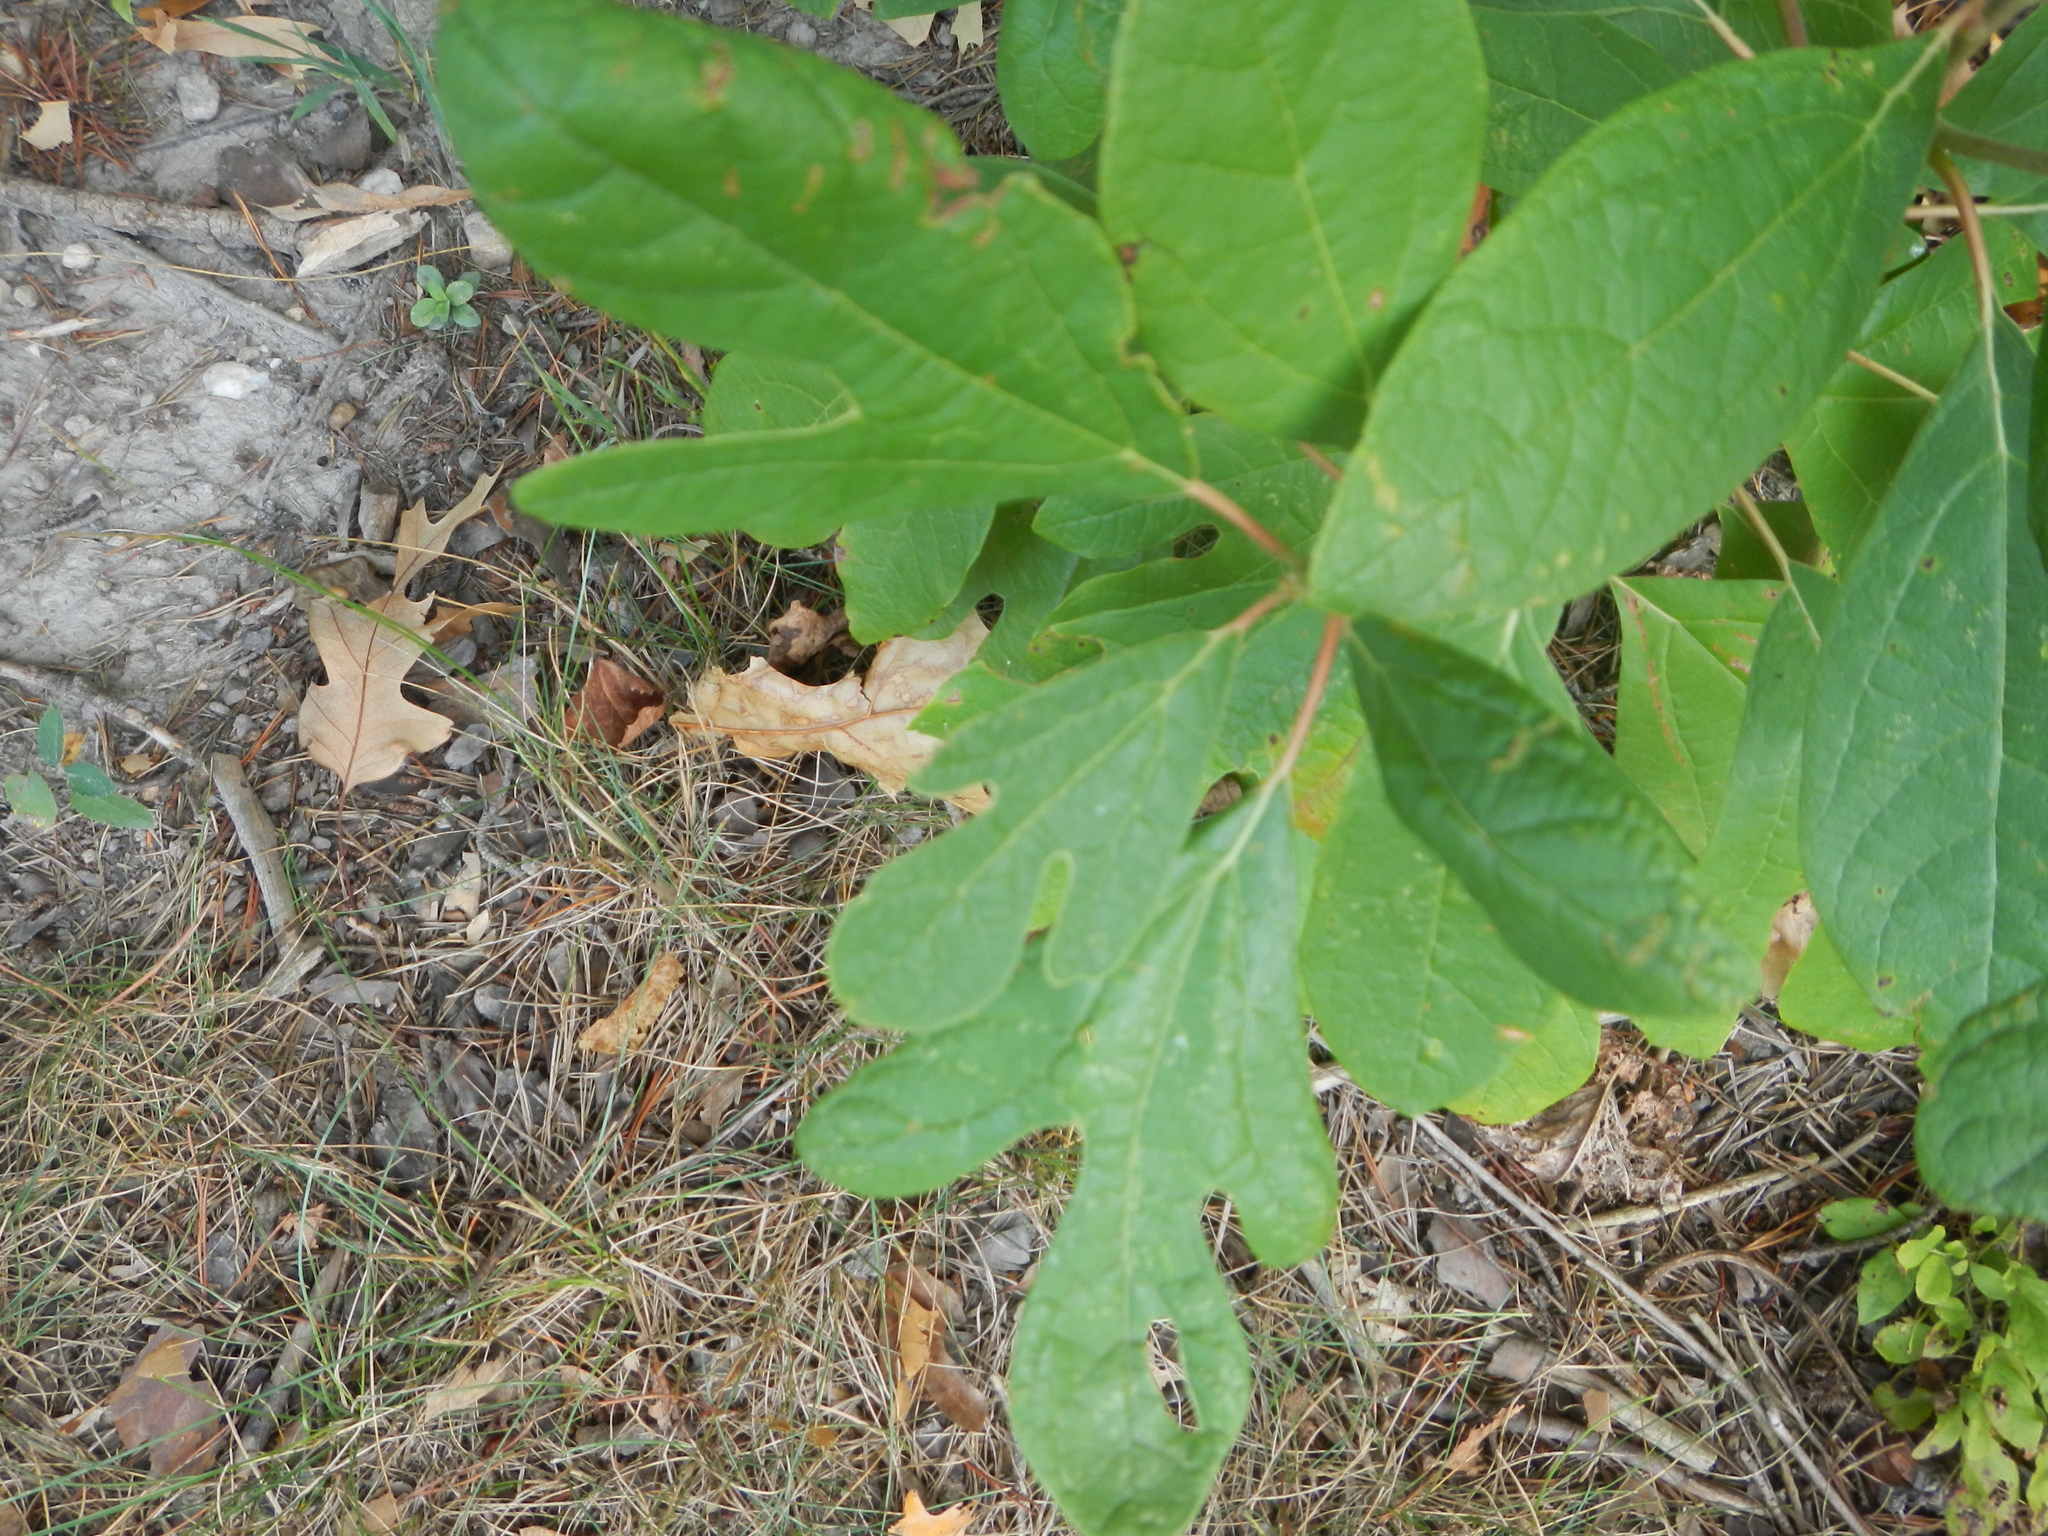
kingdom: Plantae
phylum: Tracheophyta
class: Magnoliopsida
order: Laurales
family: Lauraceae
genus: Sassafras
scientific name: Sassafras albidum
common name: Sassafras
